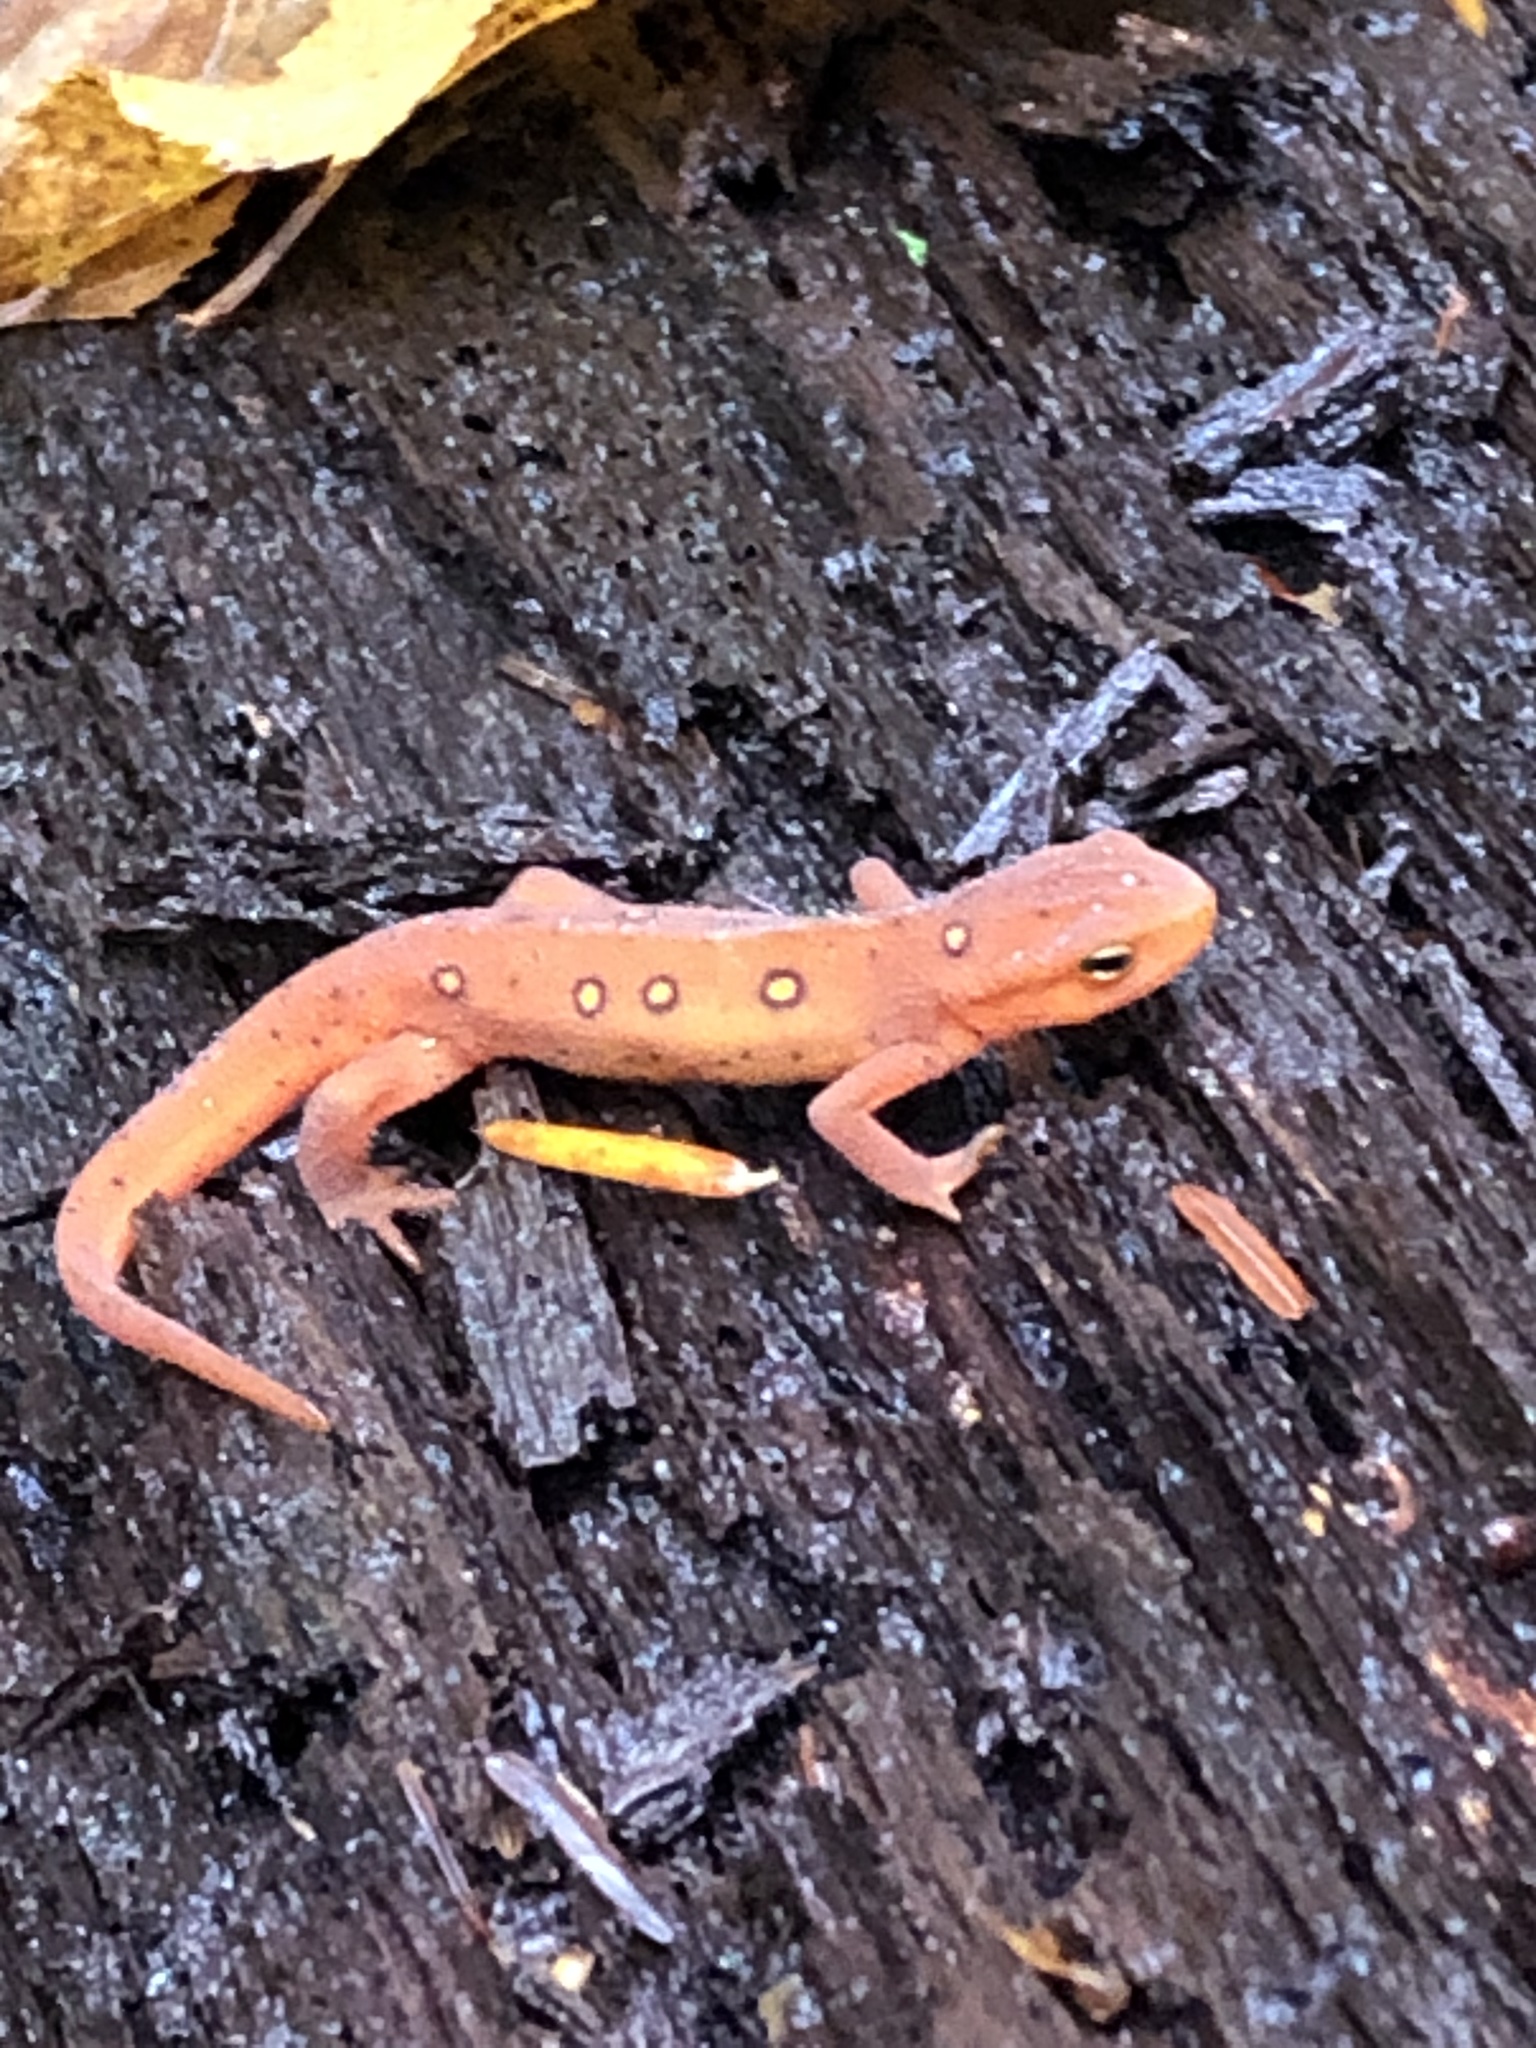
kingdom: Animalia
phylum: Chordata
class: Amphibia
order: Caudata
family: Salamandridae
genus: Notophthalmus
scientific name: Notophthalmus viridescens
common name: Eastern newt
